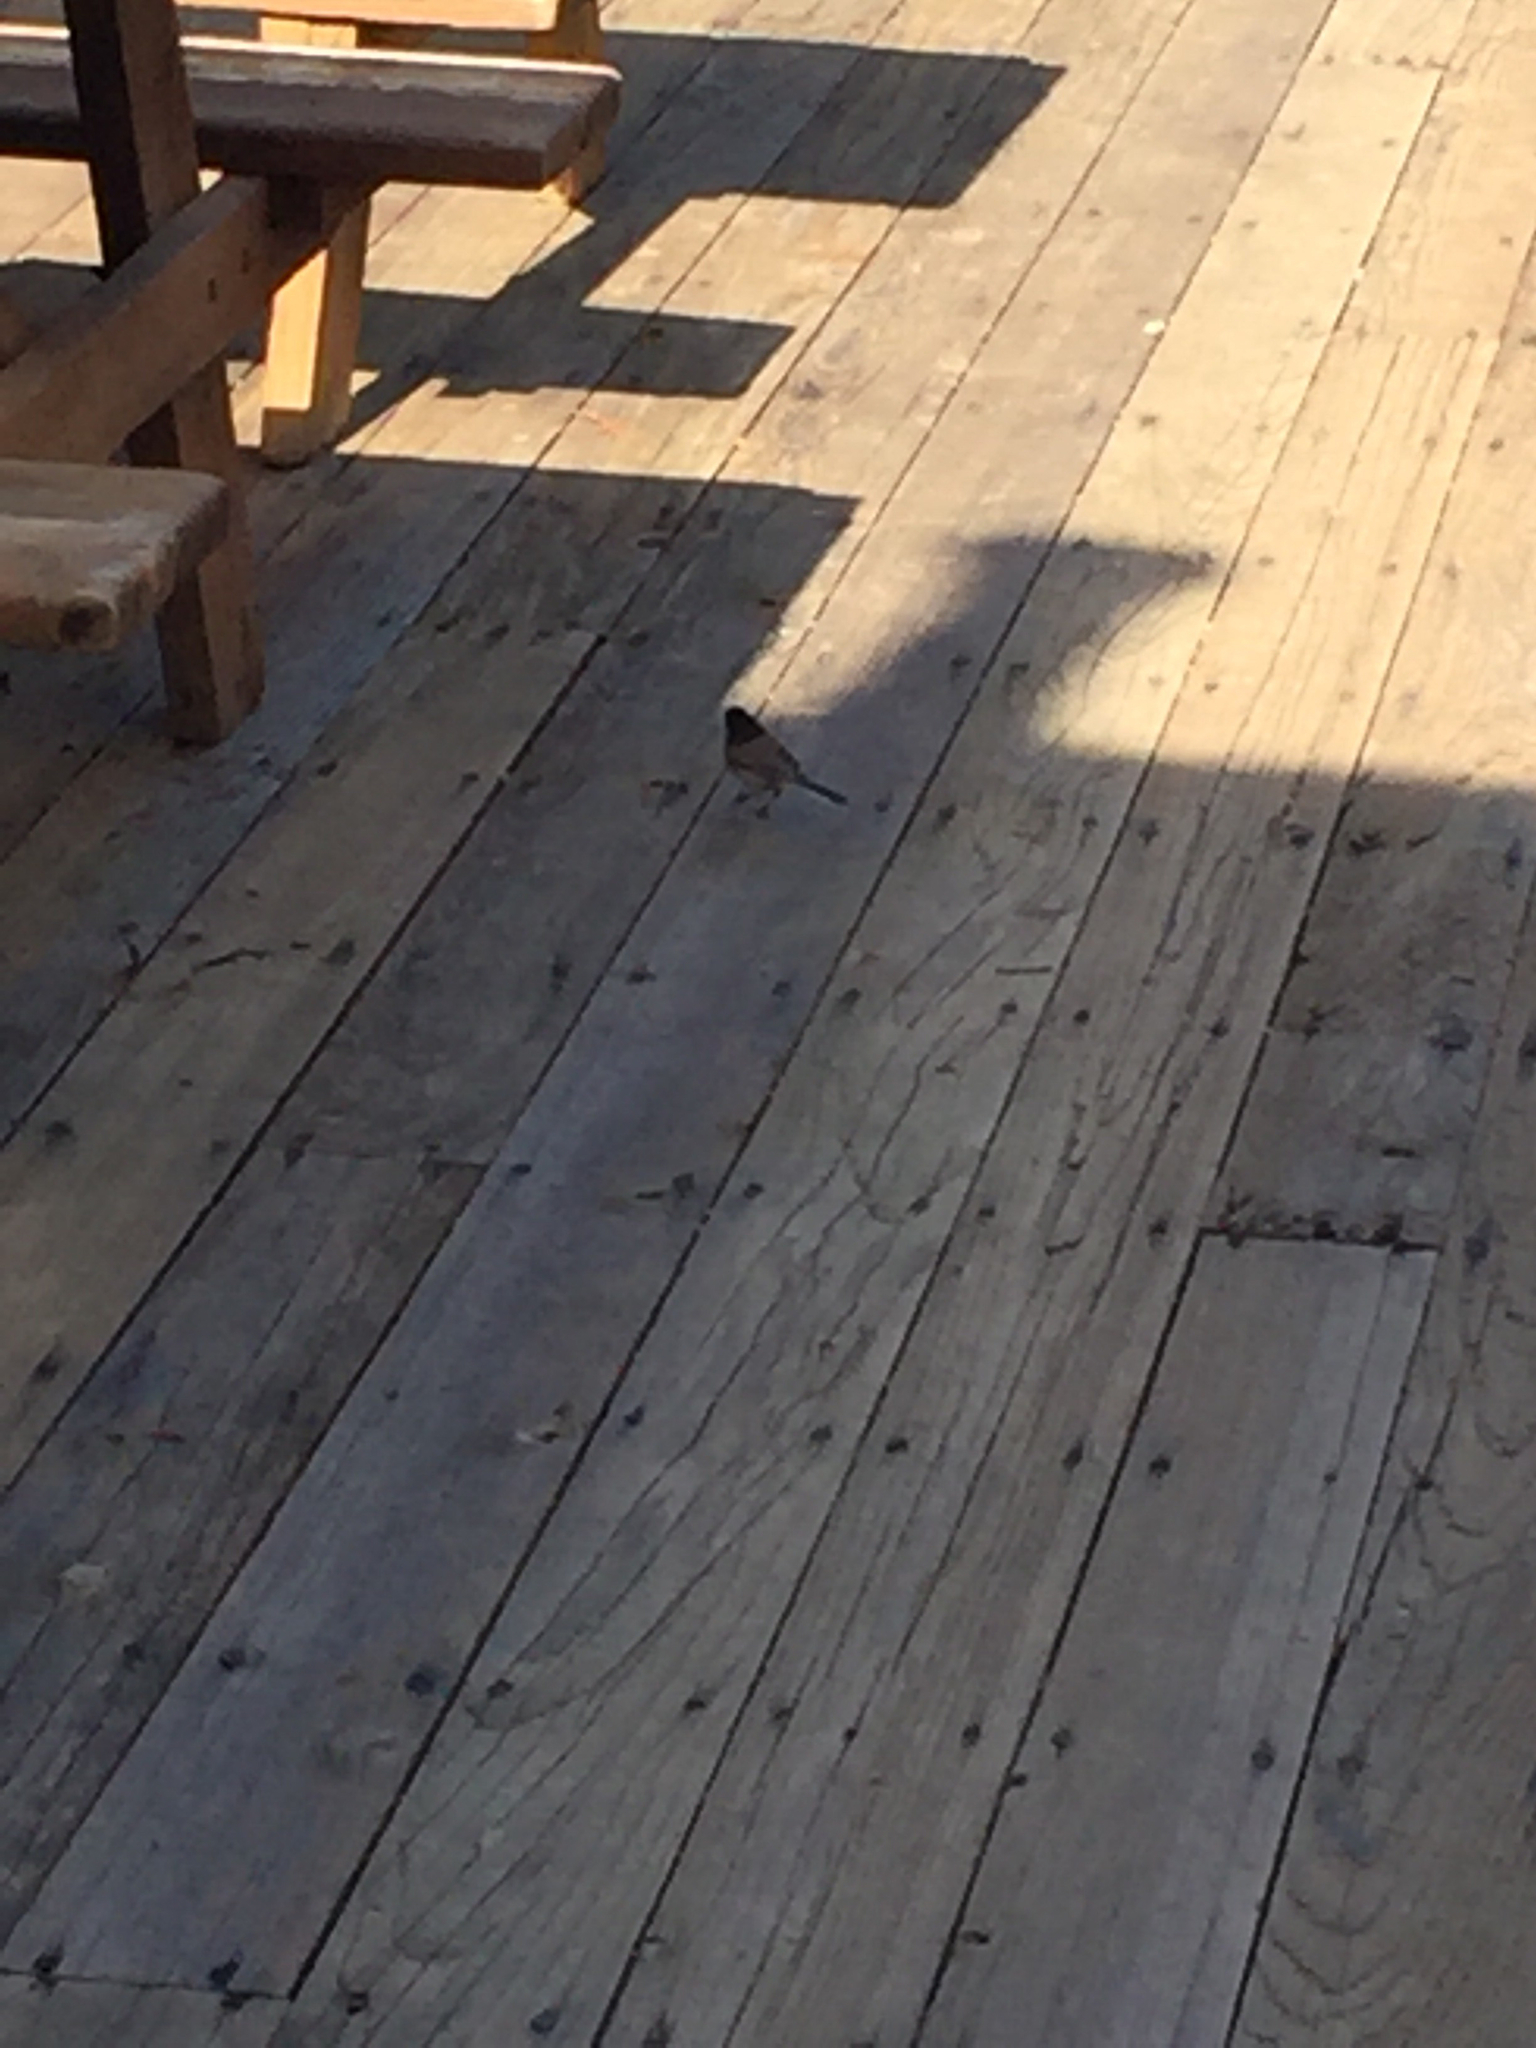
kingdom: Animalia
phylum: Chordata
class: Aves
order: Passeriformes
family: Passerellidae
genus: Junco
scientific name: Junco hyemalis
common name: Dark-eyed junco
